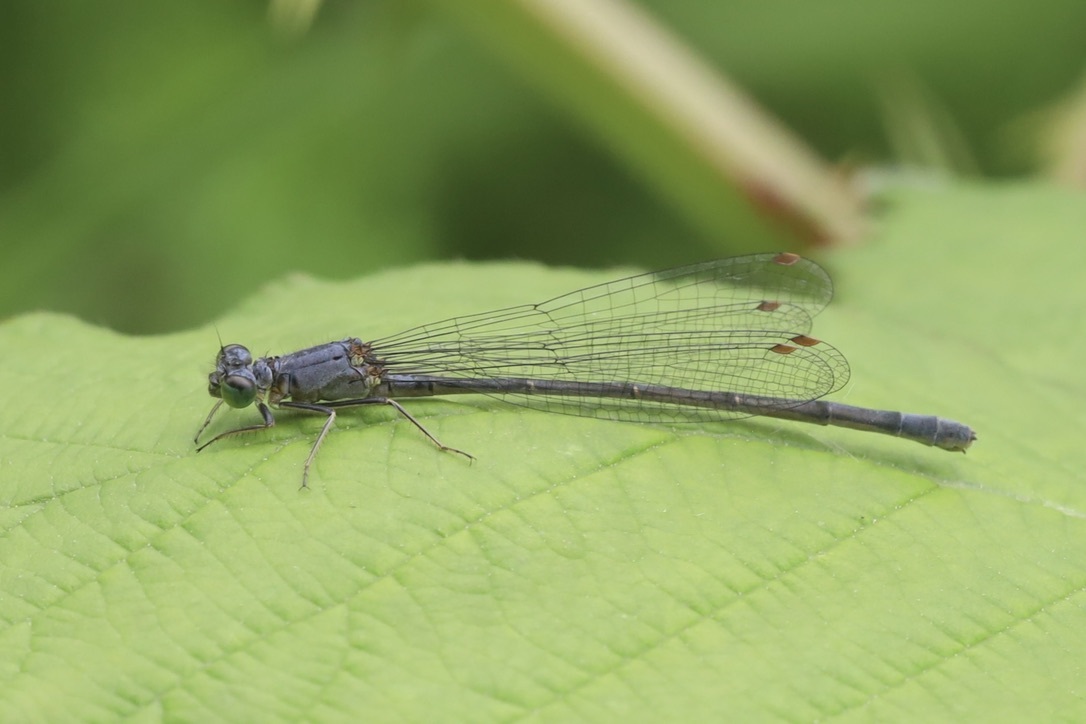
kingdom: Animalia
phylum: Arthropoda
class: Insecta
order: Odonata
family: Coenagrionidae
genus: Ischnura
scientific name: Ischnura cervula
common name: Pacific forktail
